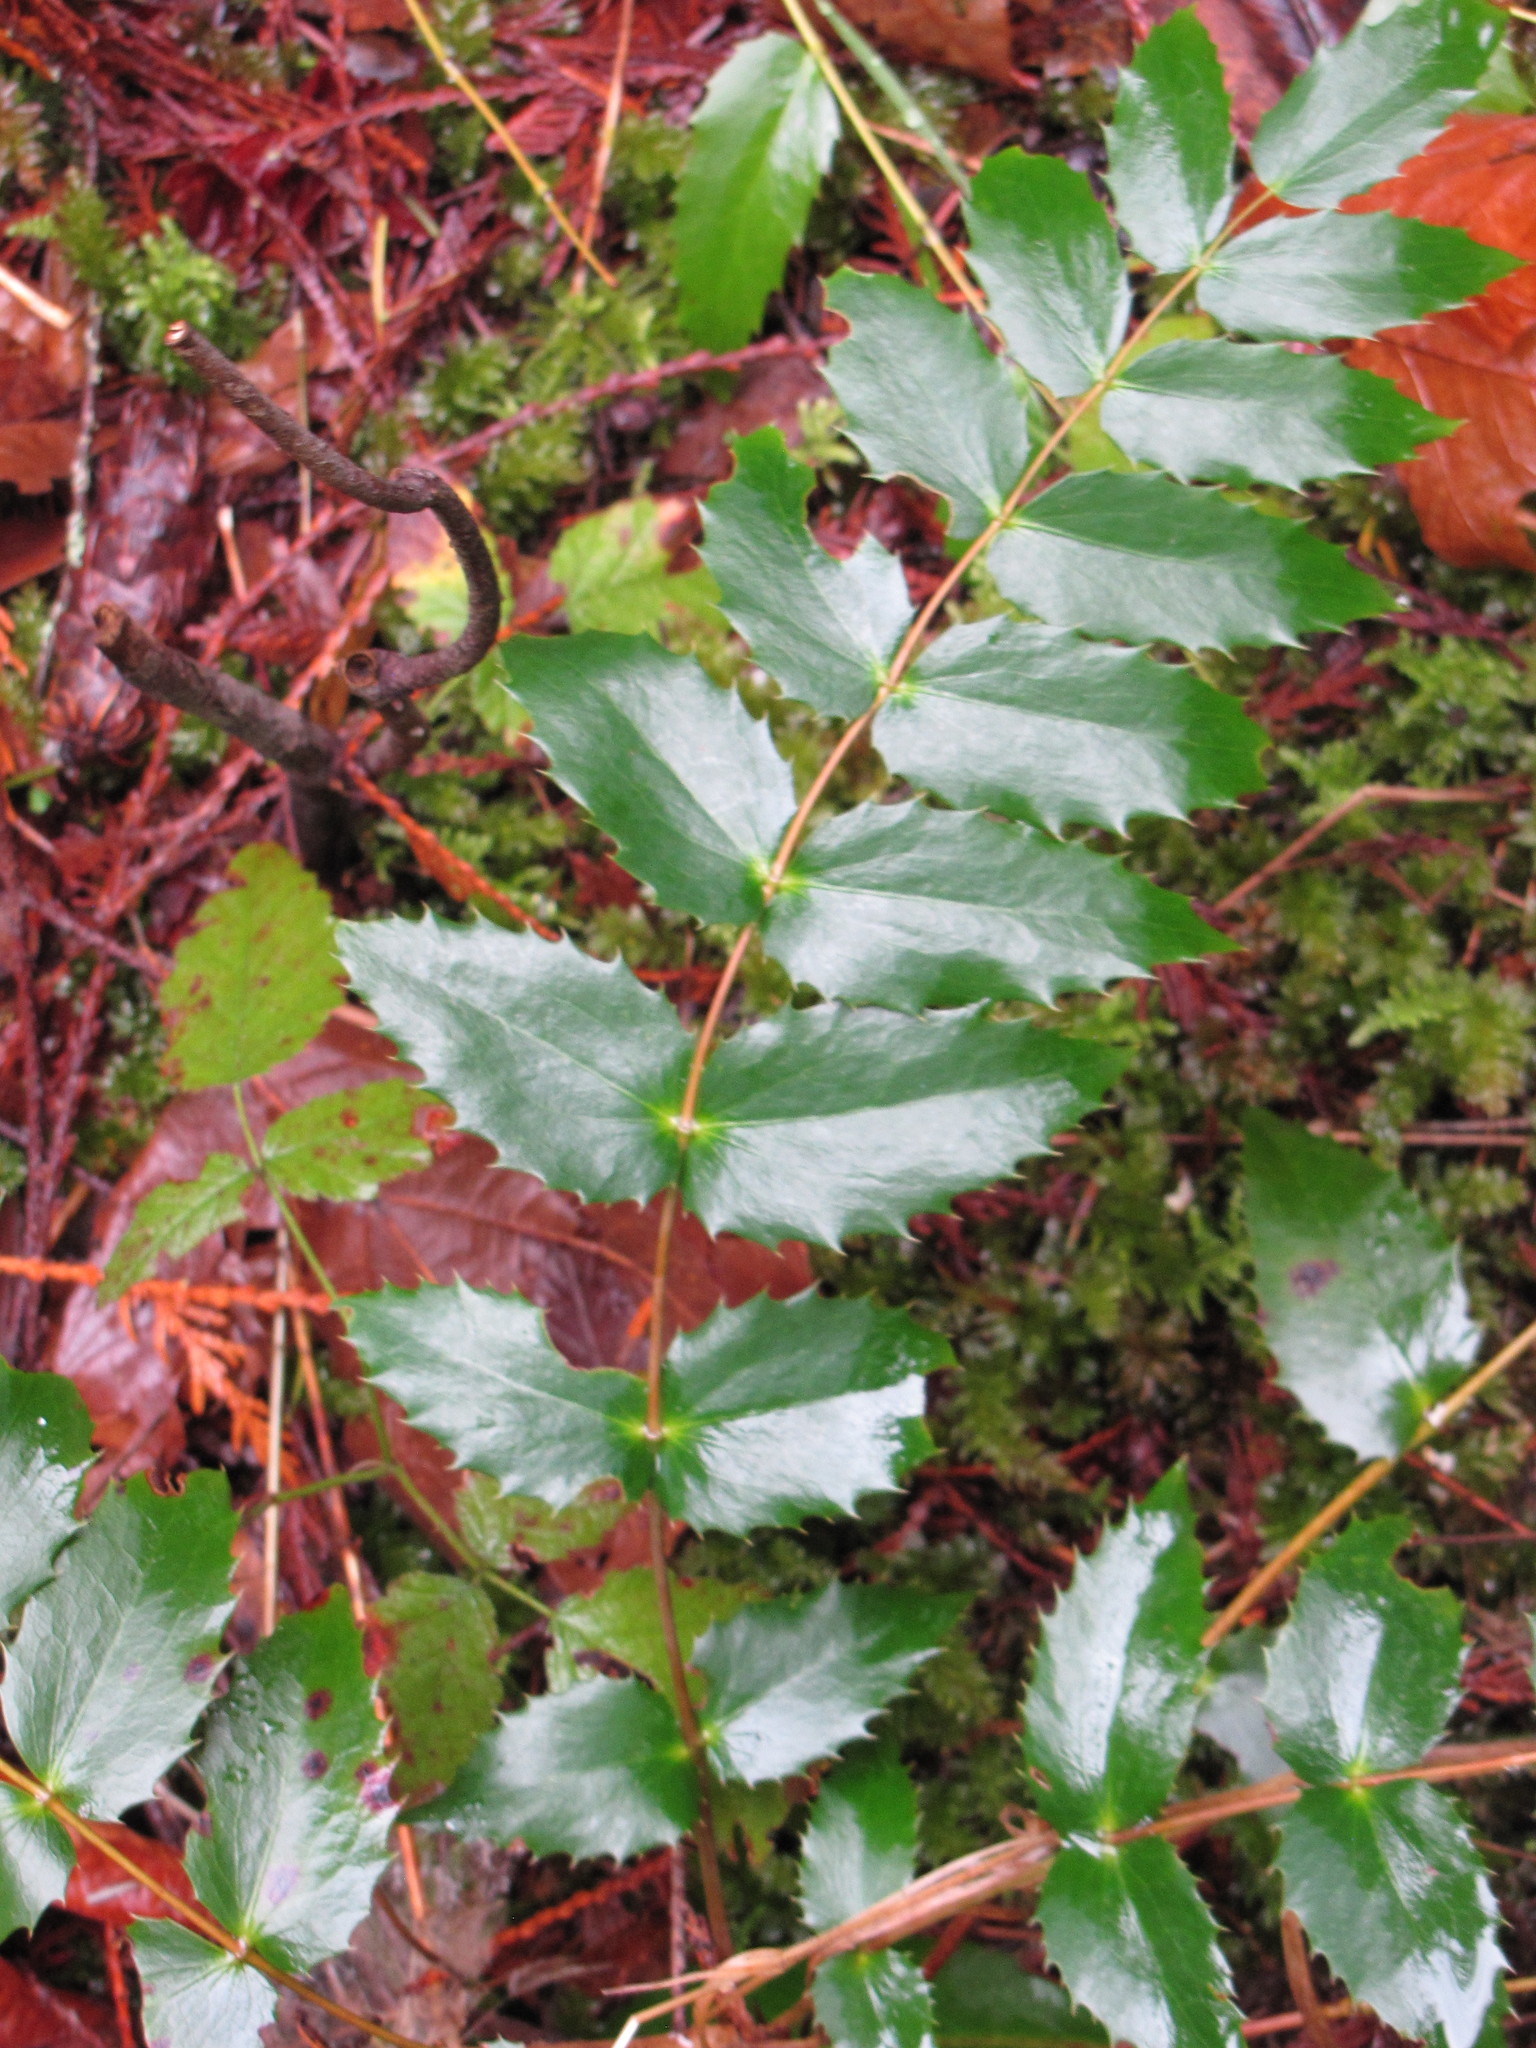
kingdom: Plantae
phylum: Tracheophyta
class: Magnoliopsida
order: Ranunculales
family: Berberidaceae
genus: Mahonia
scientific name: Mahonia nervosa
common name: Cascade oregon-grape
